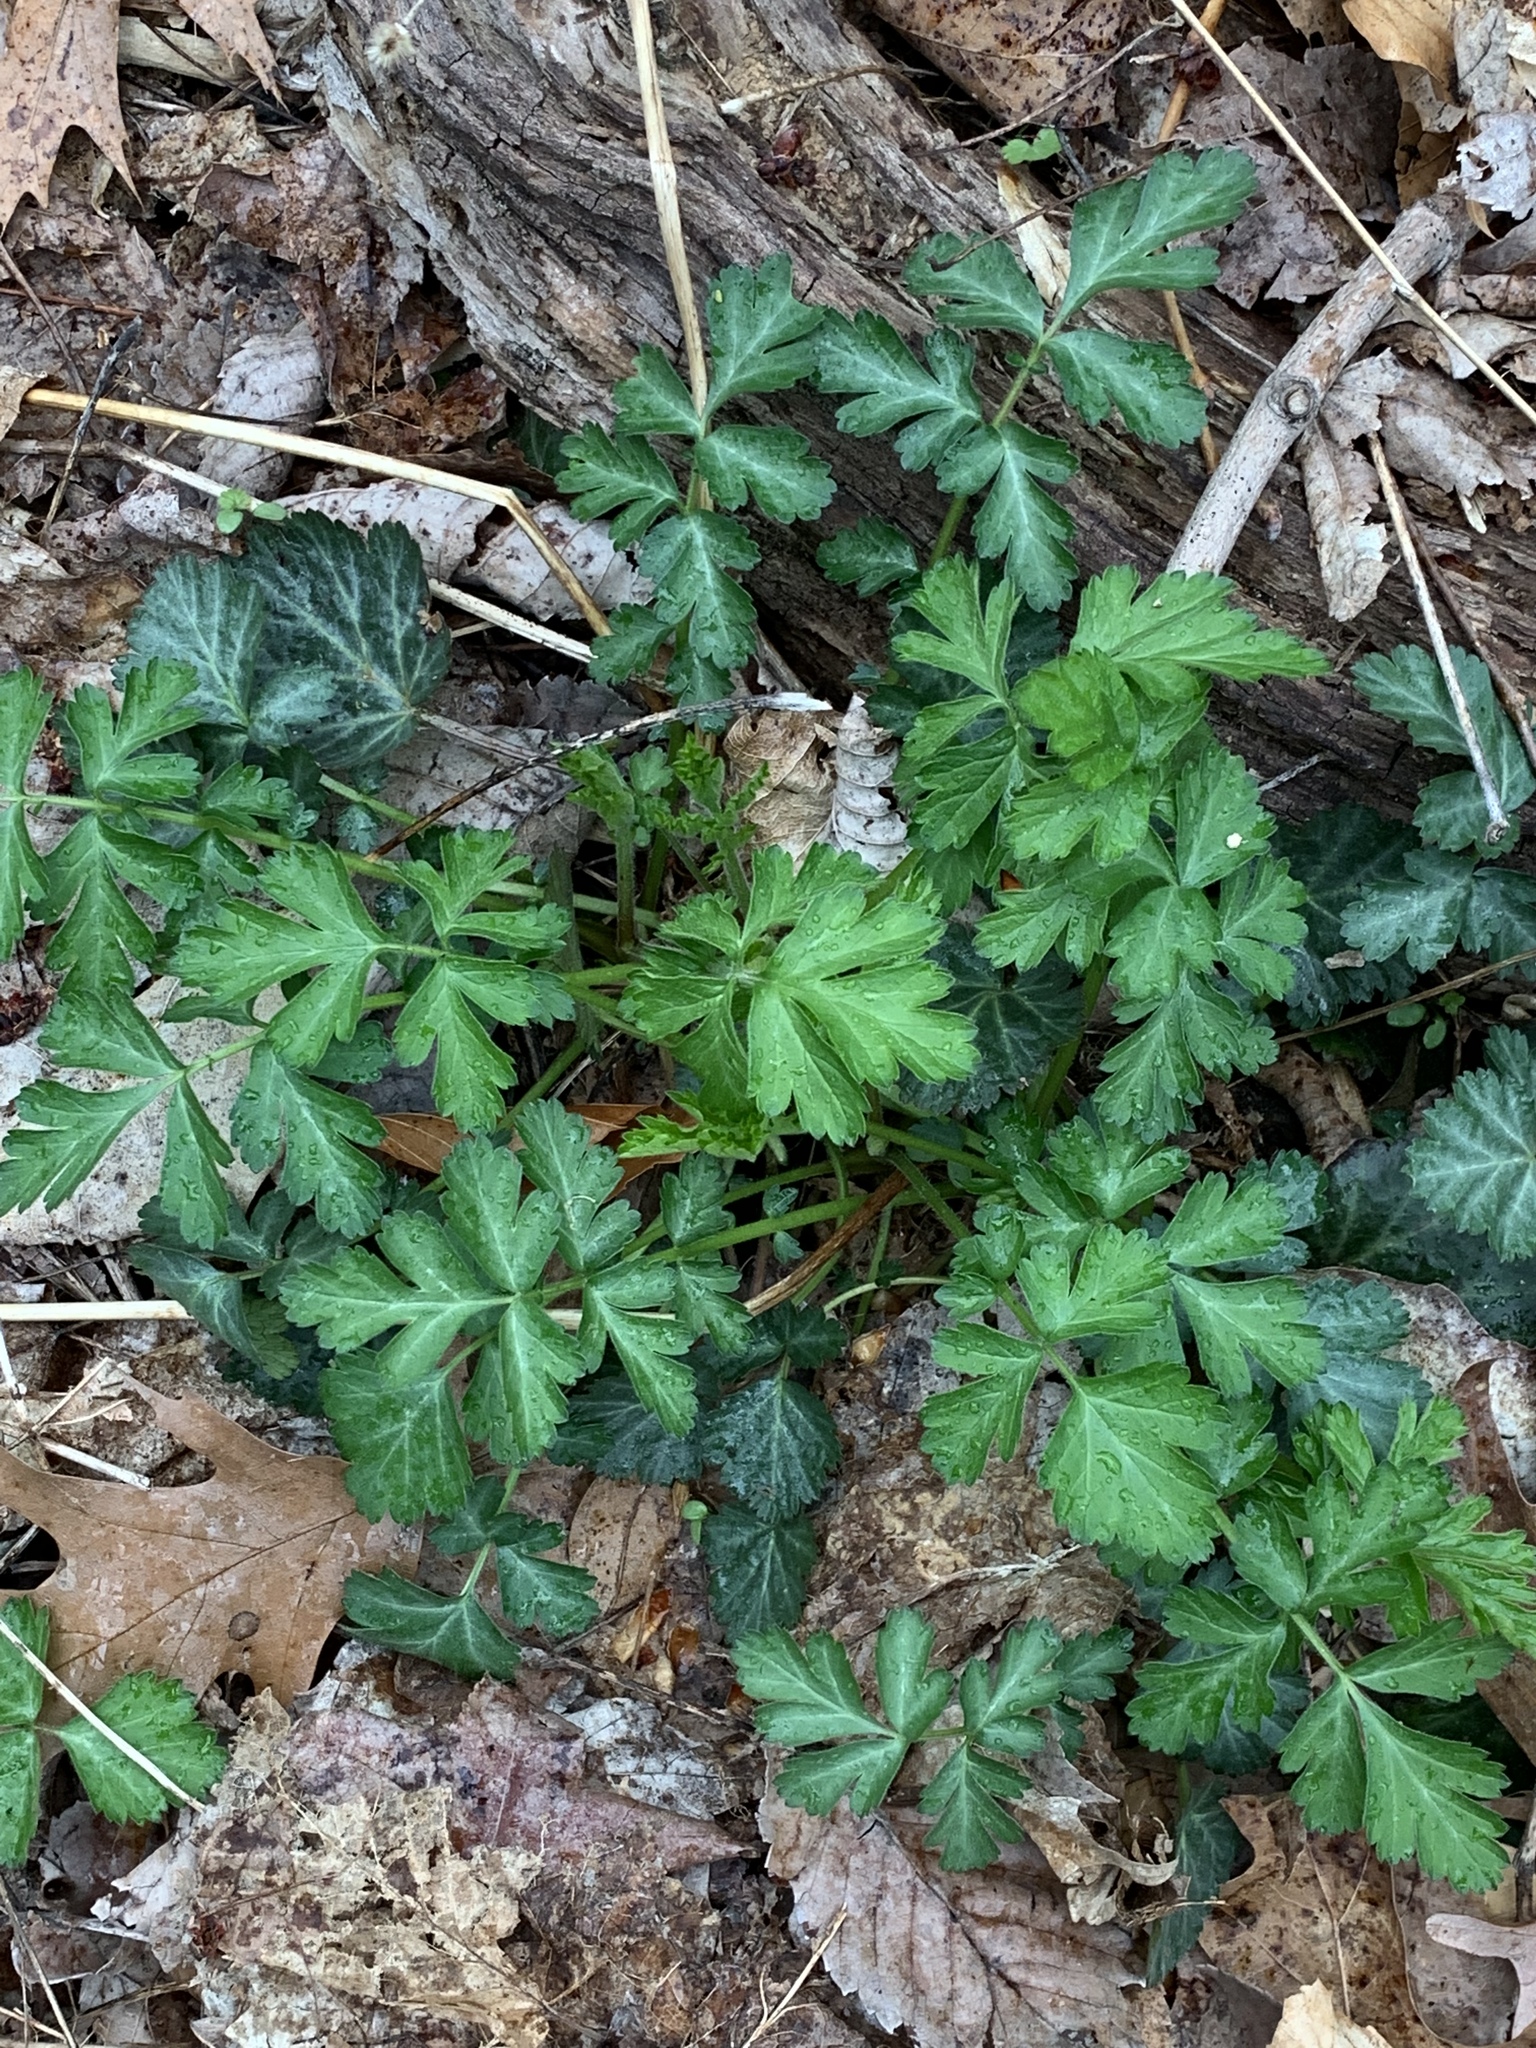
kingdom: Plantae
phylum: Tracheophyta
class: Magnoliopsida
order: Rosales
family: Rosaceae
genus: Geum
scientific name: Geum canadense
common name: White avens
